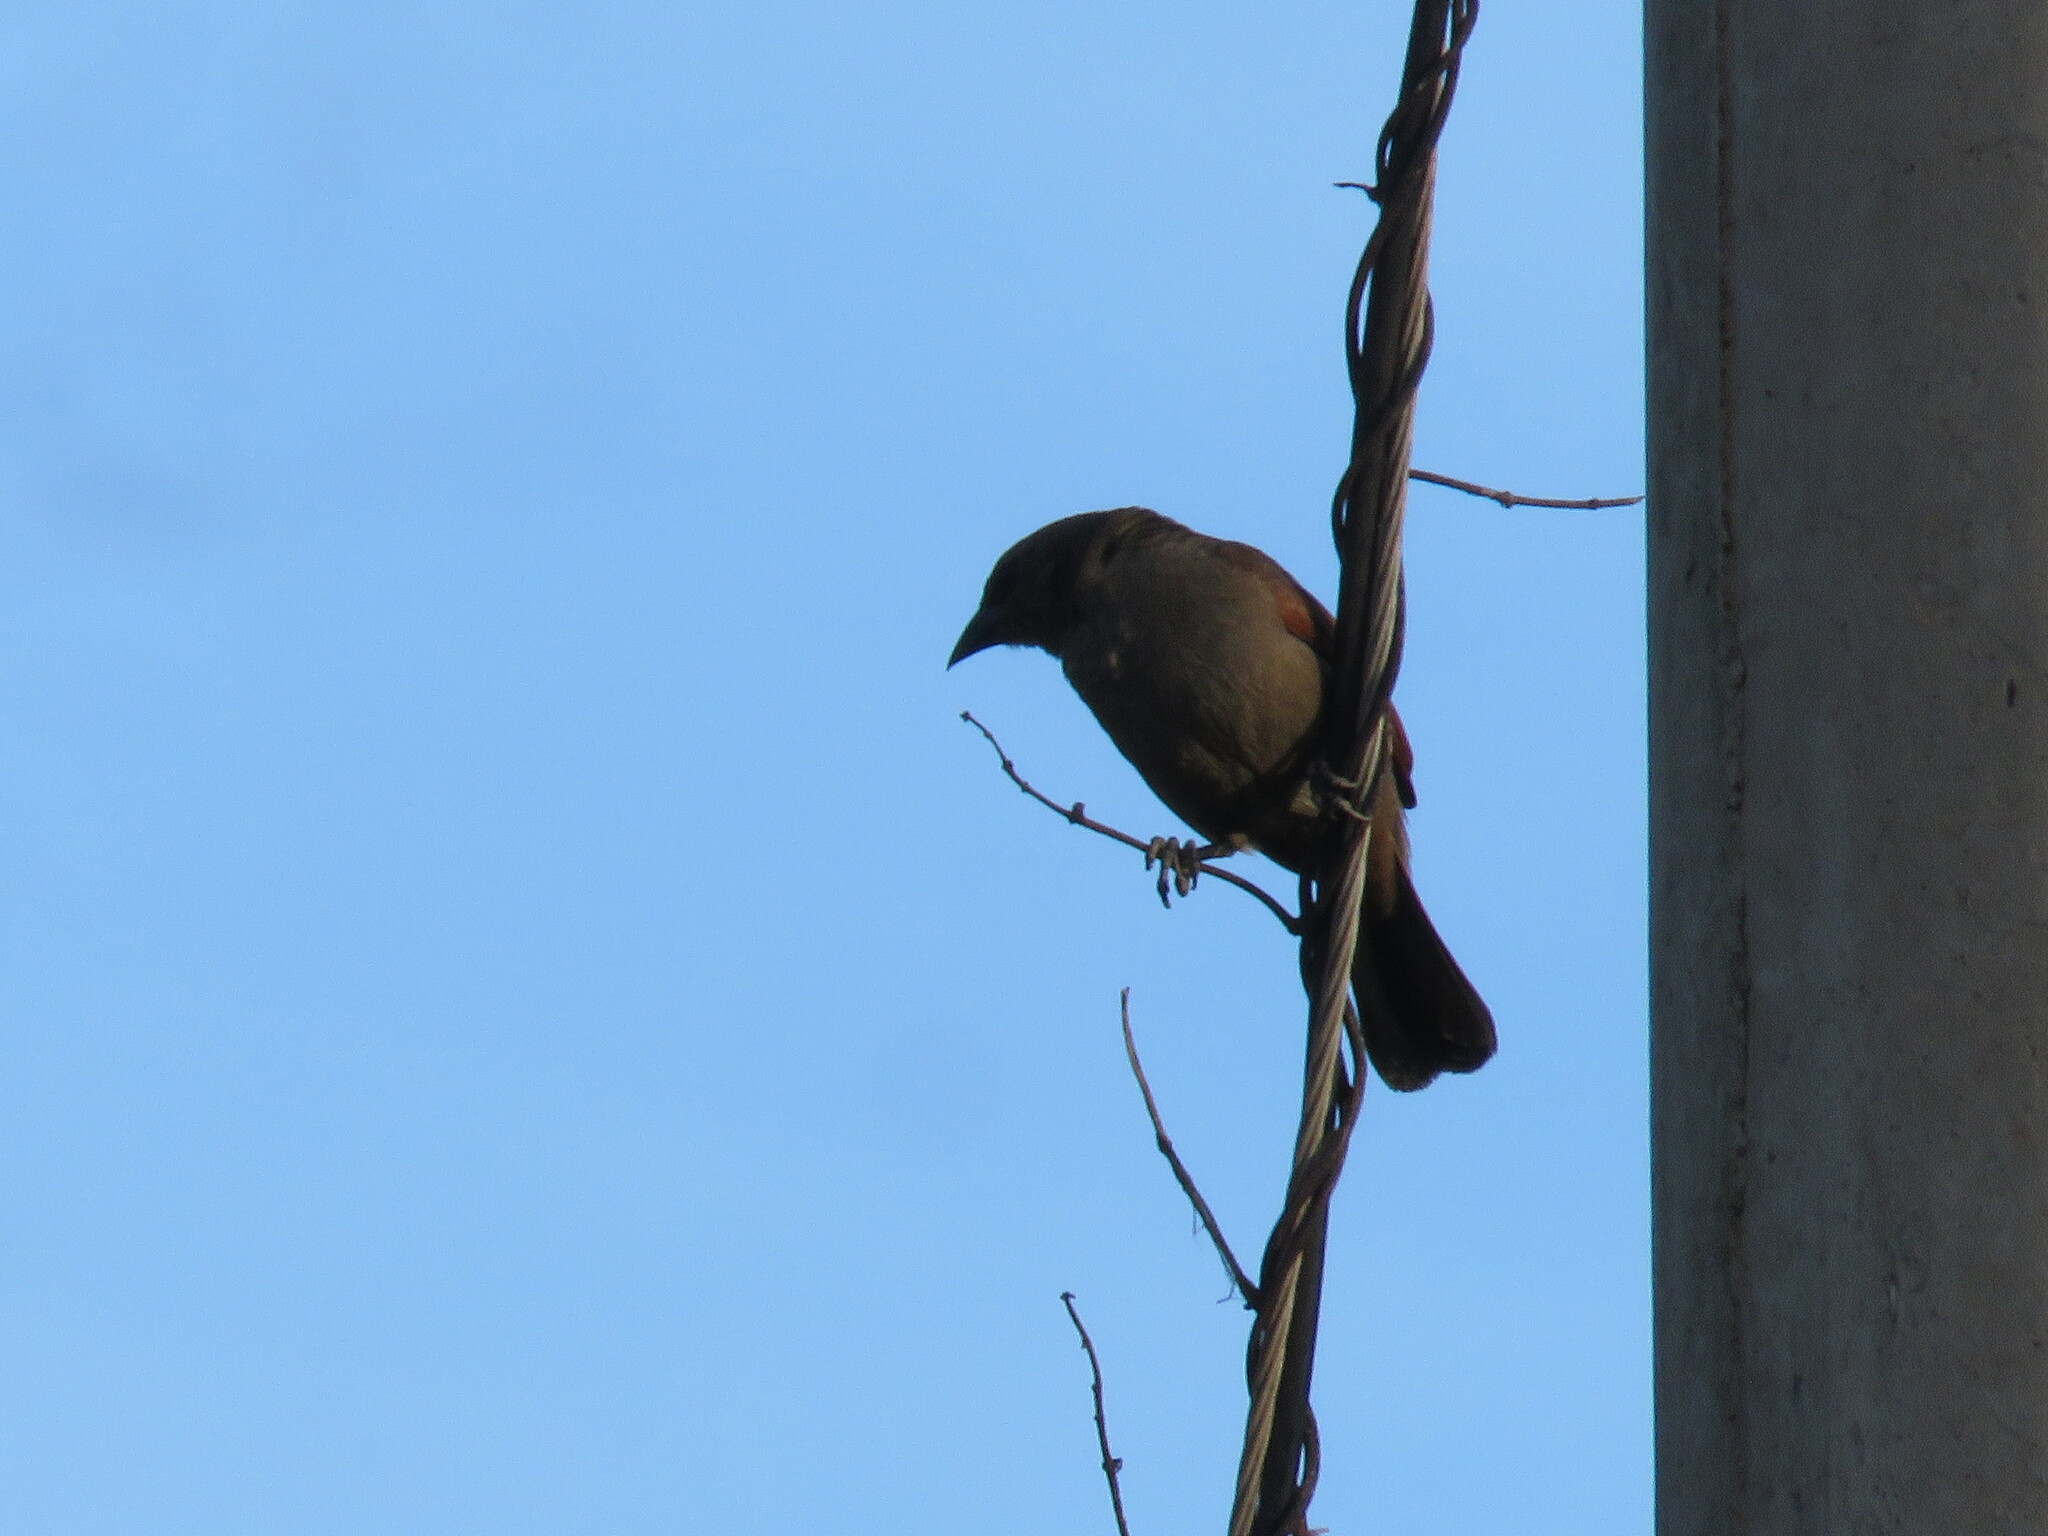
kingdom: Animalia
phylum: Chordata
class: Aves
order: Passeriformes
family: Icteridae
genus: Agelaioides
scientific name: Agelaioides badius
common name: Baywing
